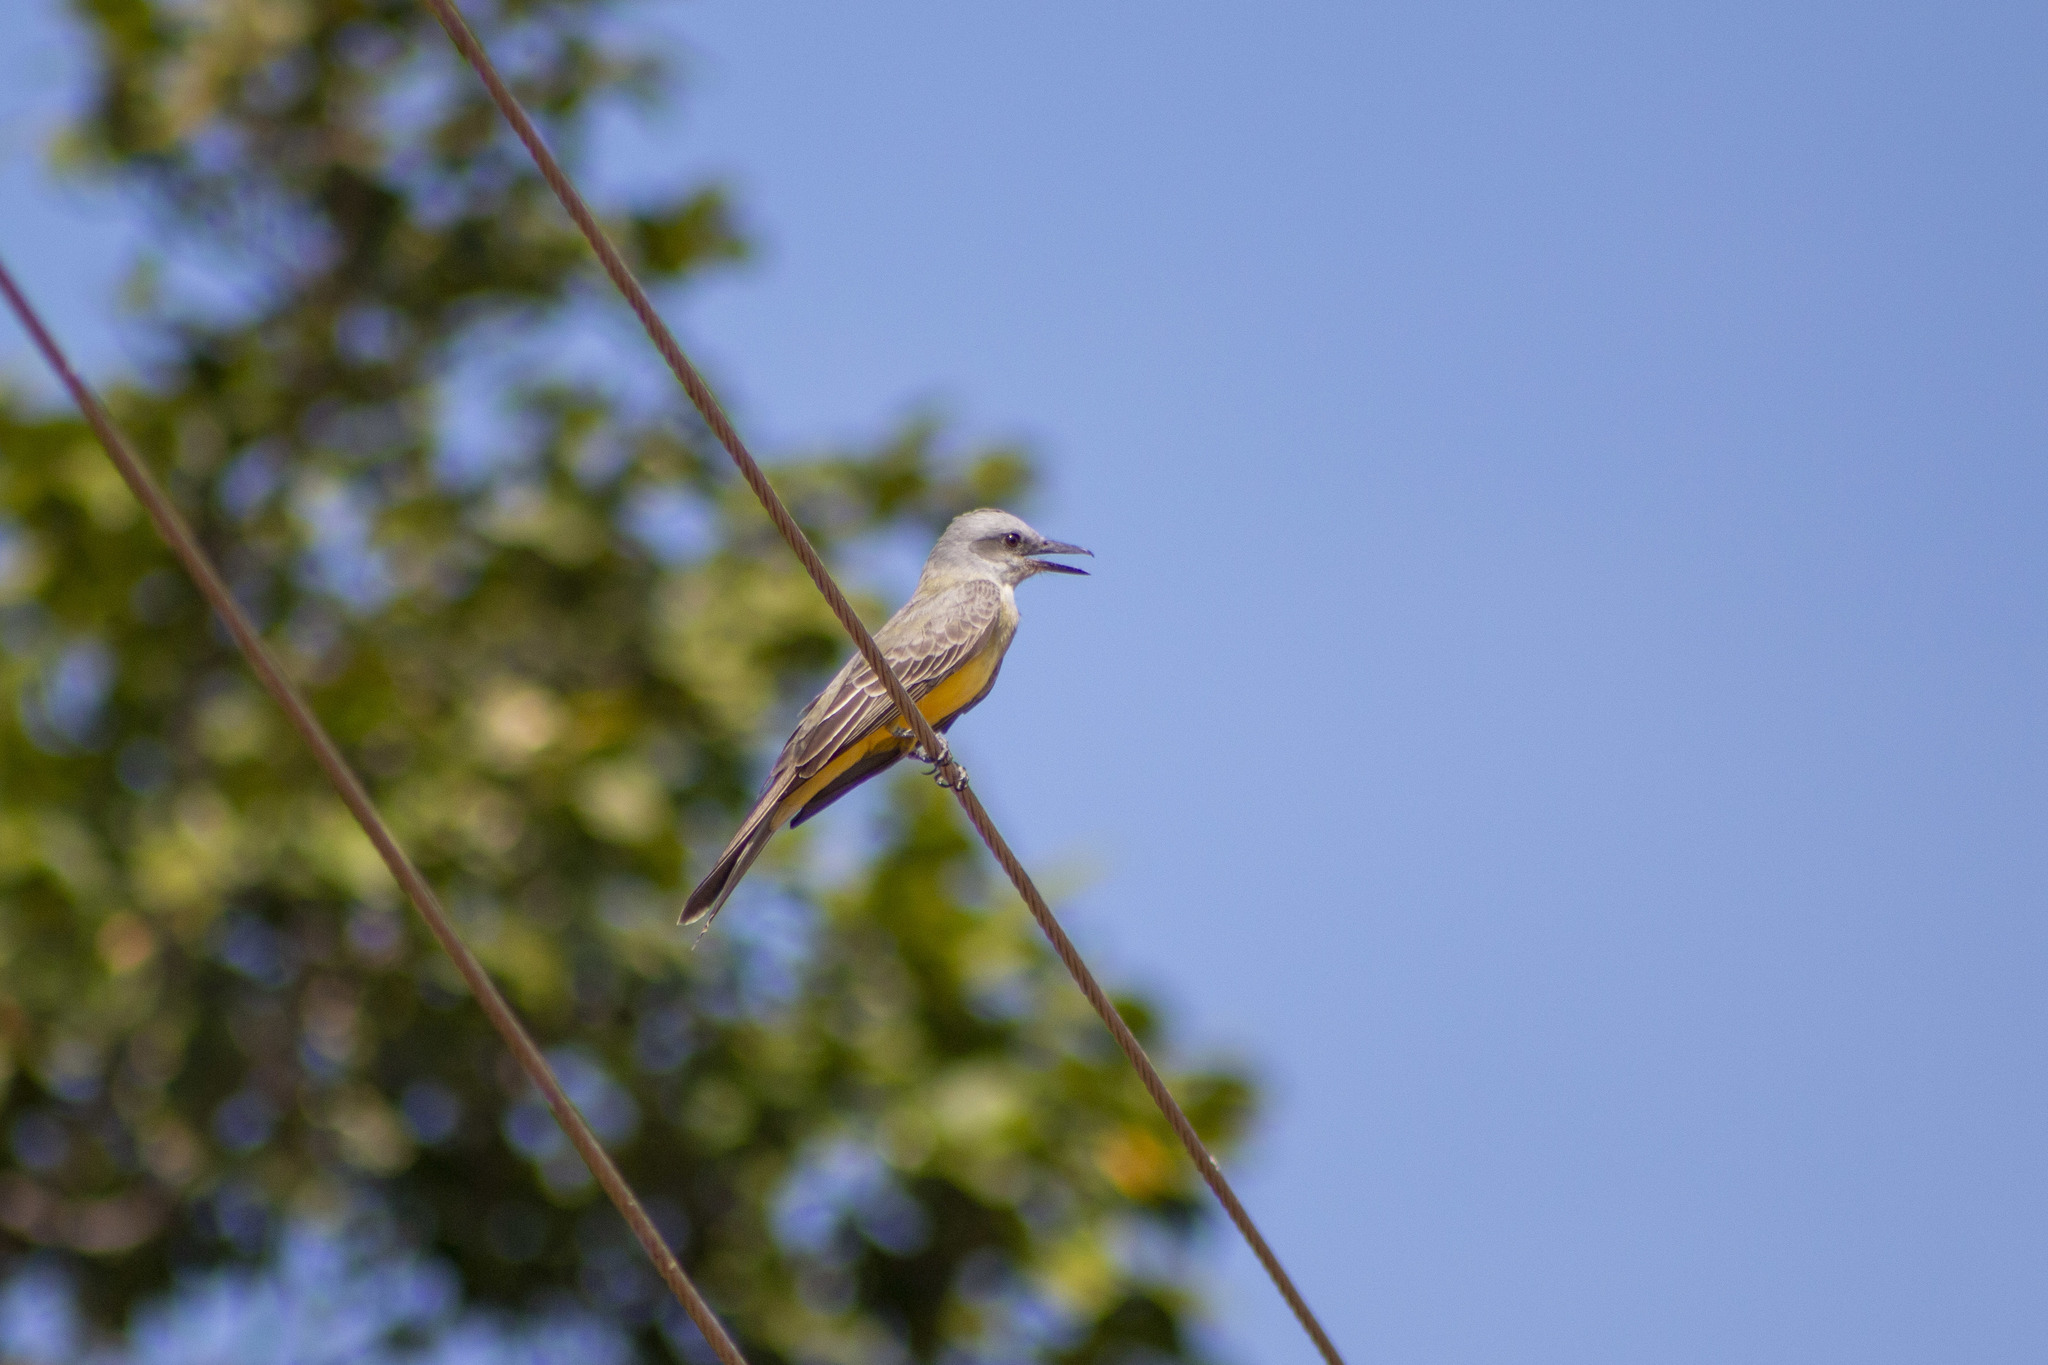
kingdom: Animalia
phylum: Chordata
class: Aves
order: Passeriformes
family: Tyrannidae
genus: Tyrannus
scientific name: Tyrannus melancholicus
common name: Tropical kingbird
